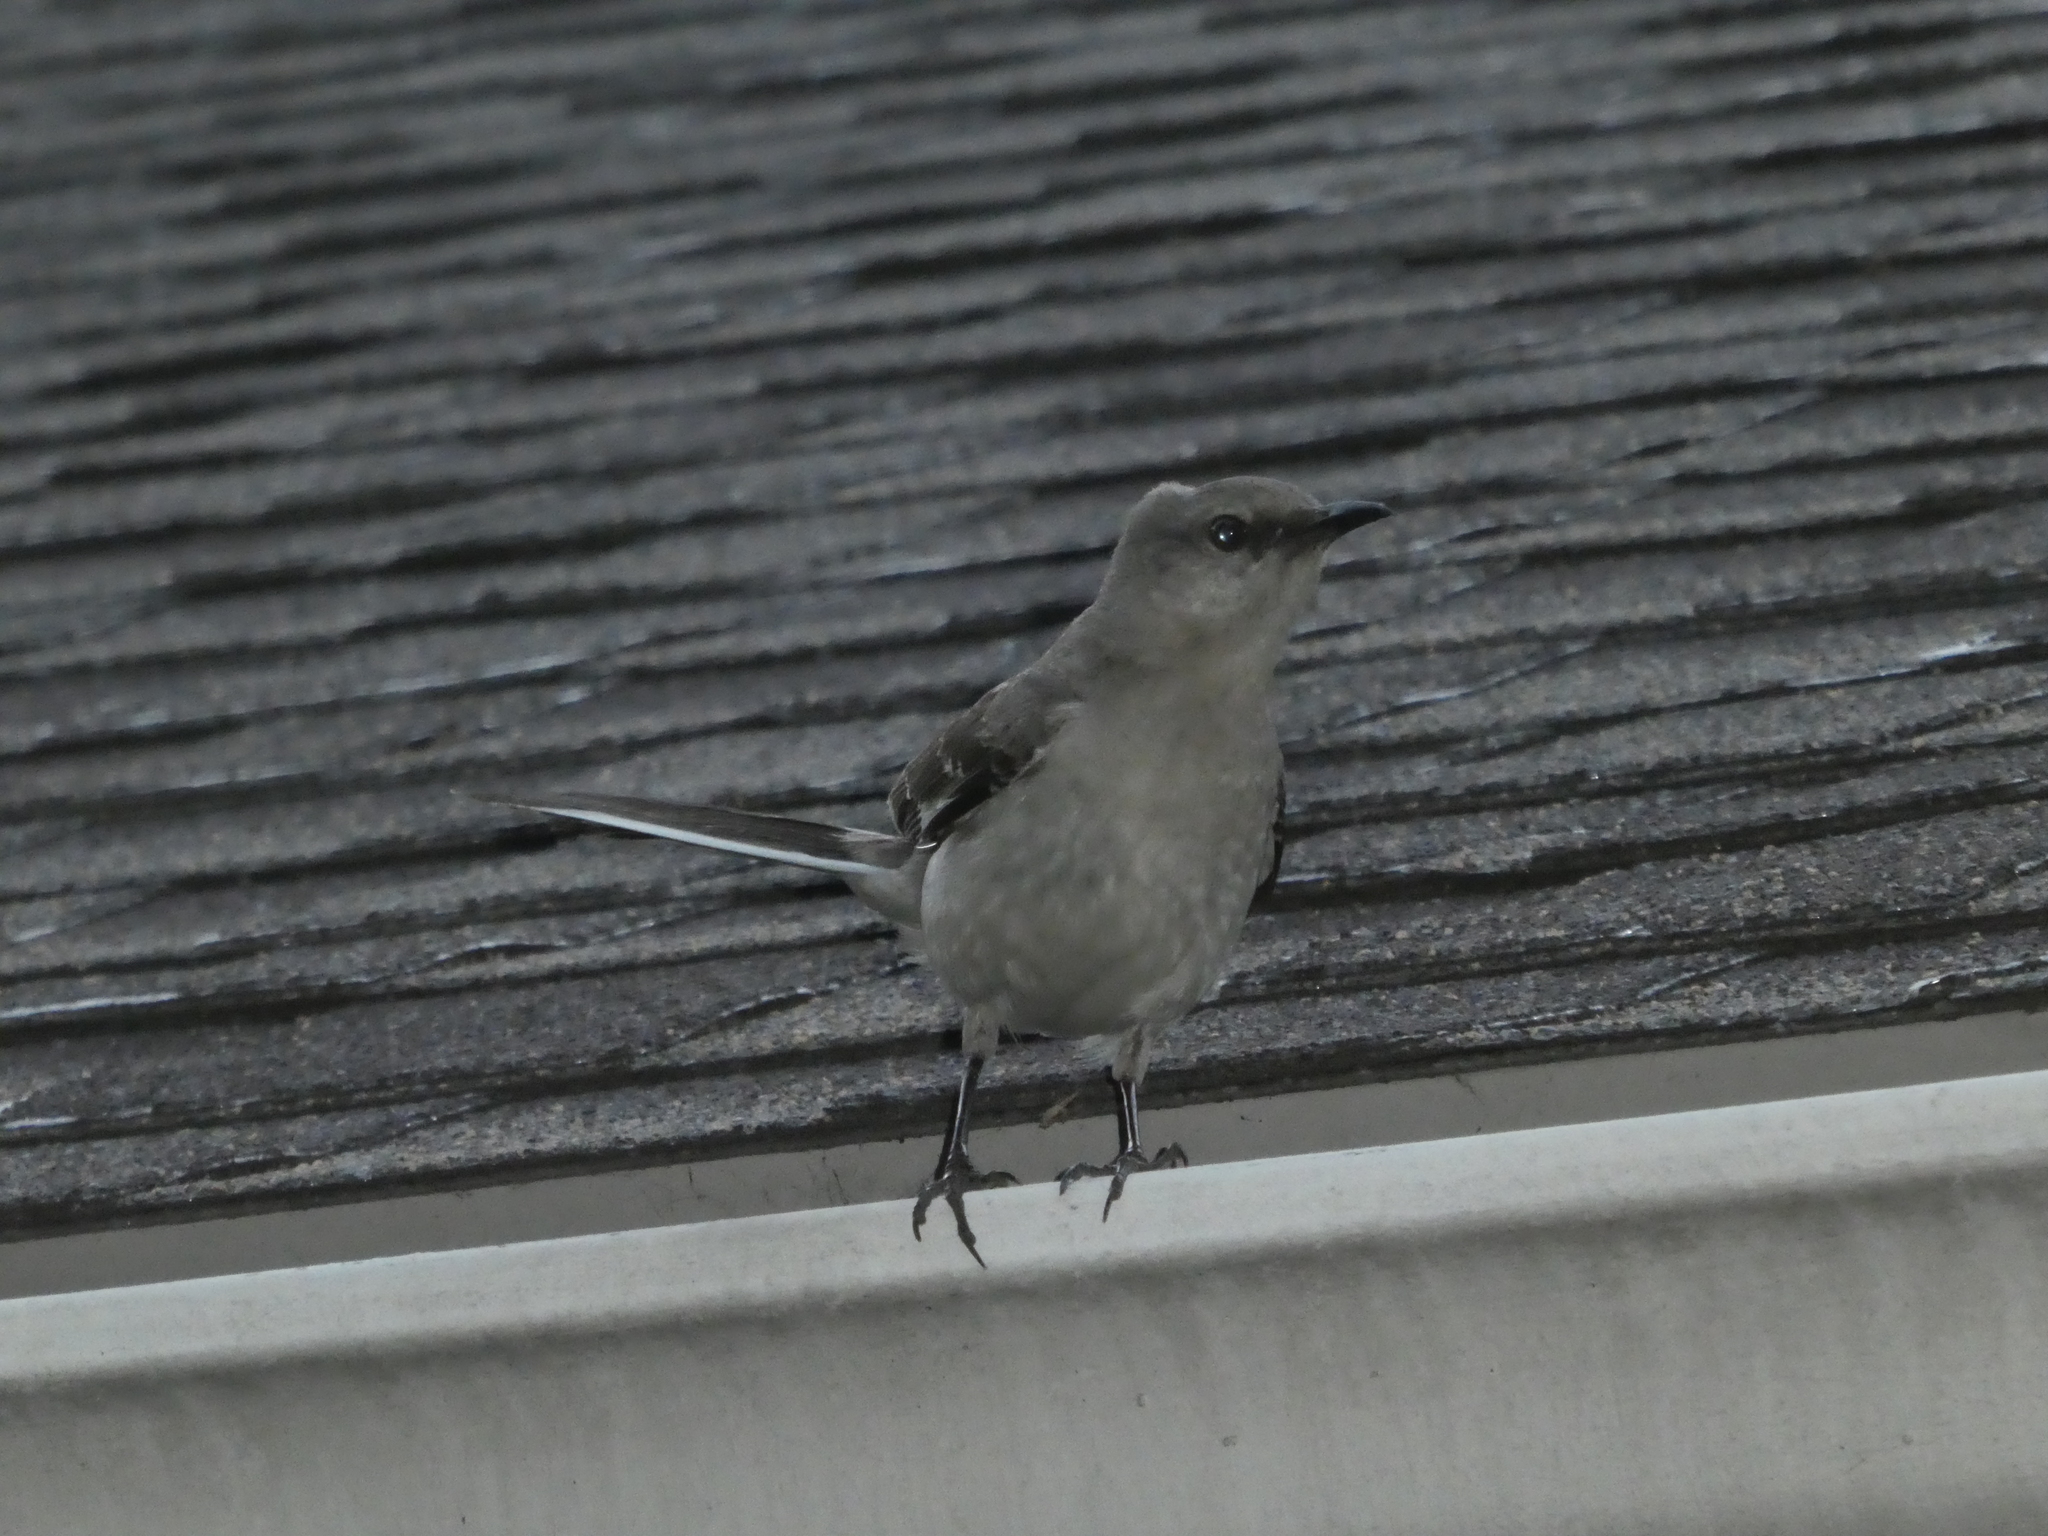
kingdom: Animalia
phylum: Chordata
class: Aves
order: Passeriformes
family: Mimidae
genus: Mimus
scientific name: Mimus polyglottos
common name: Northern mockingbird
